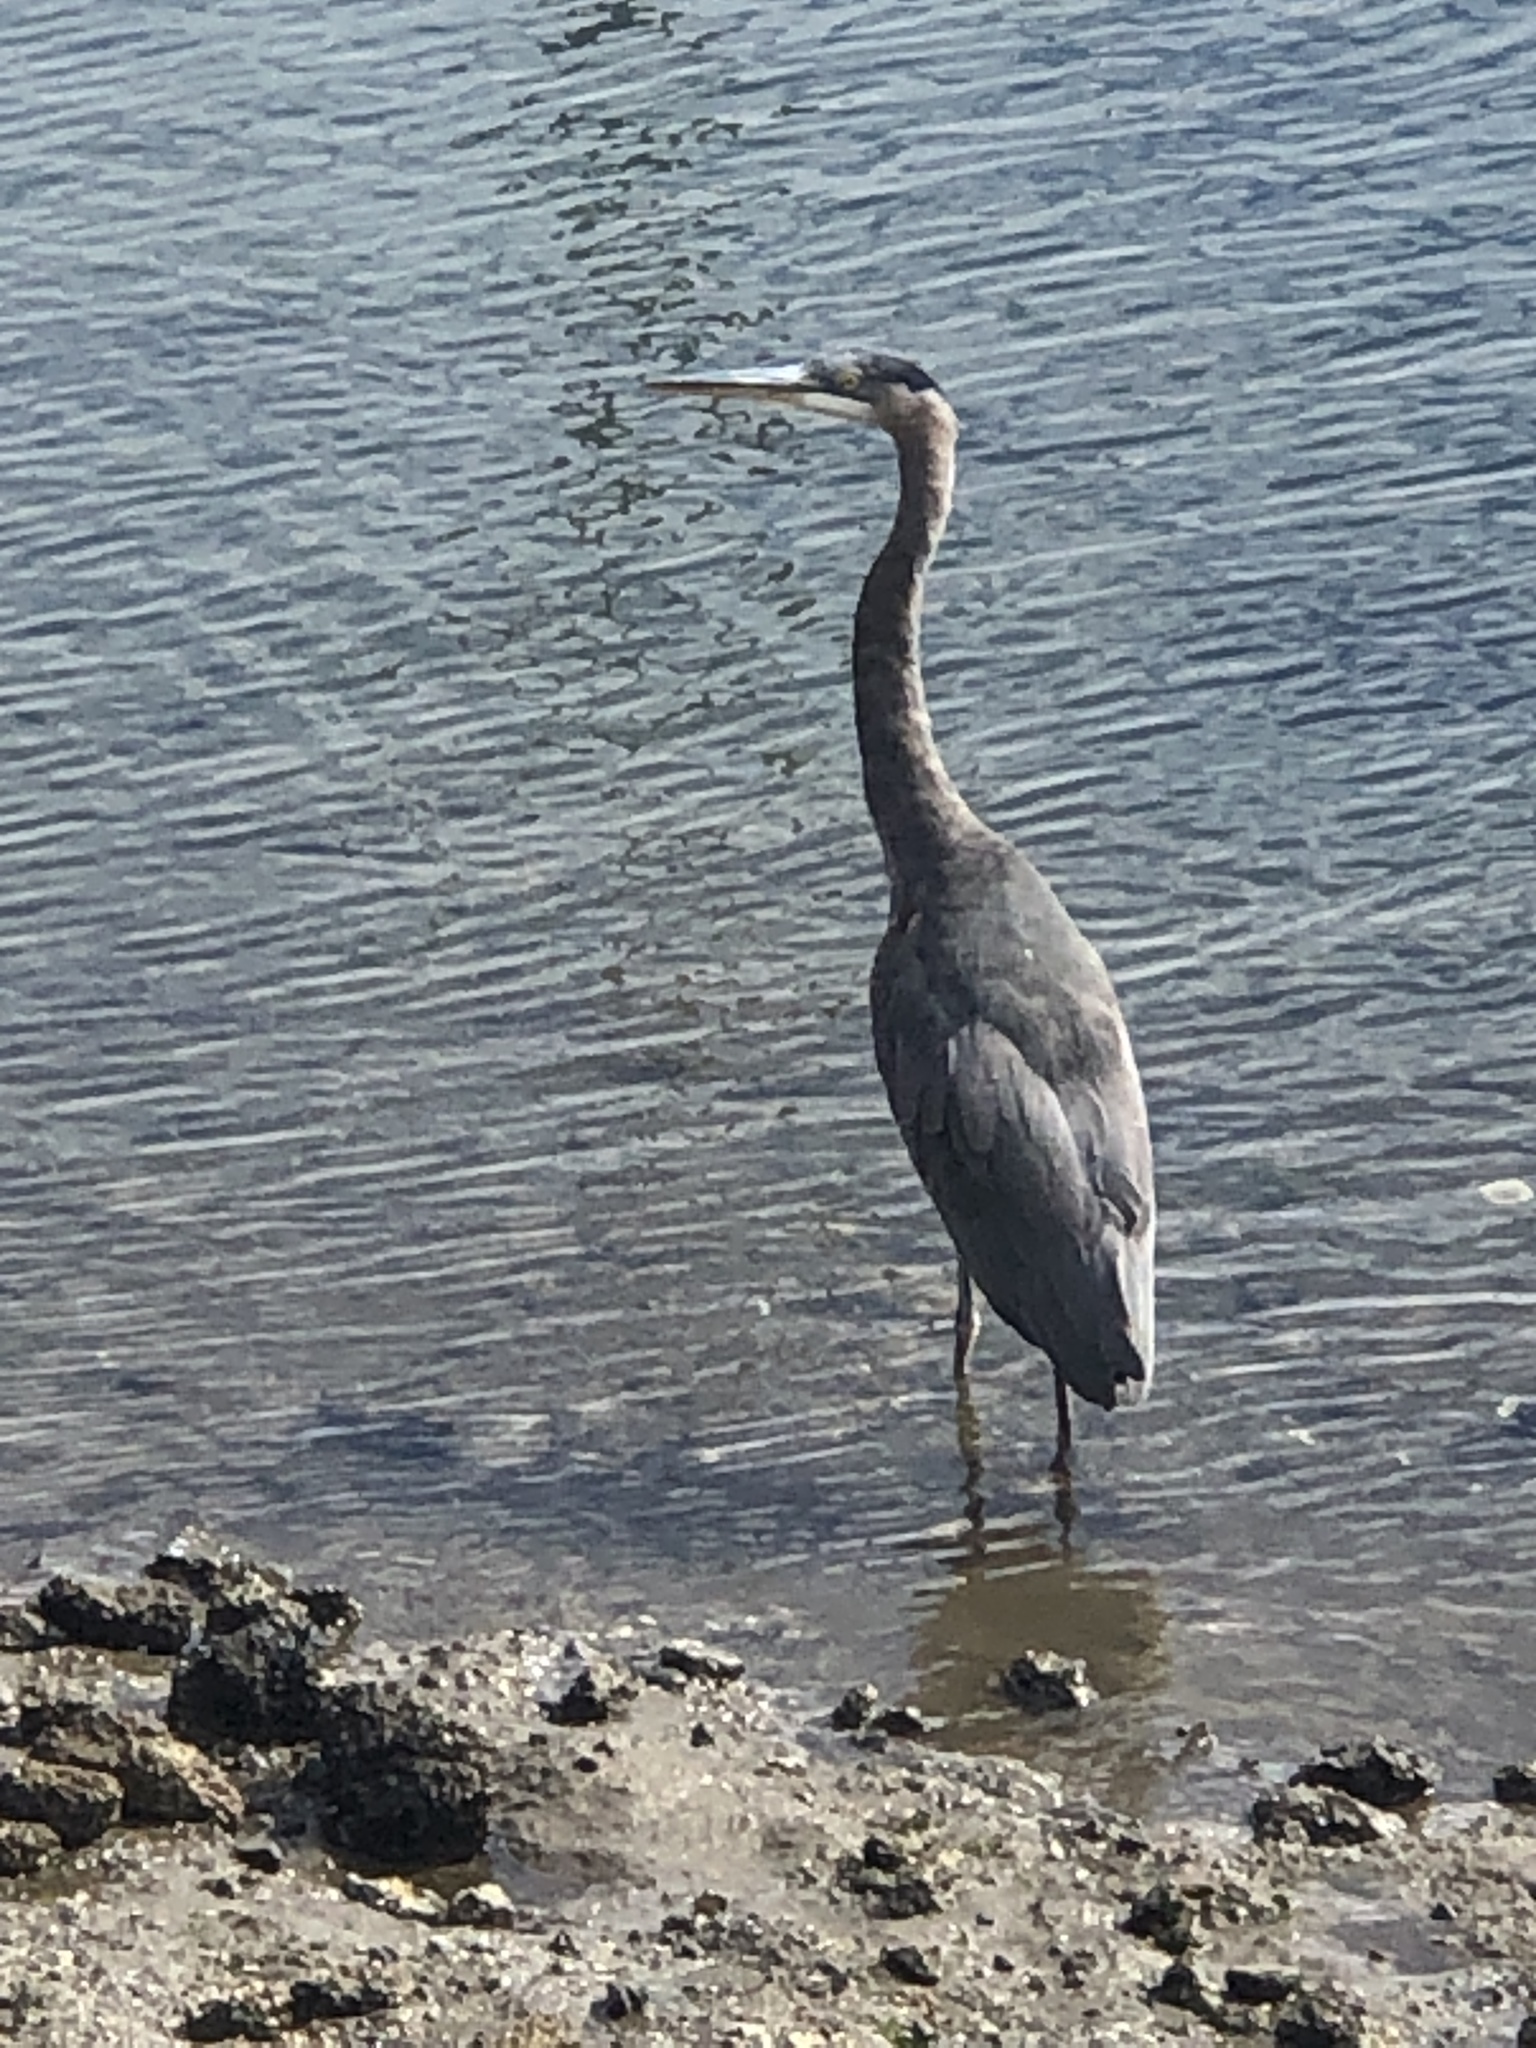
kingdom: Animalia
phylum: Chordata
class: Aves
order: Pelecaniformes
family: Ardeidae
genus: Ardea
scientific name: Ardea herodias
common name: Great blue heron
